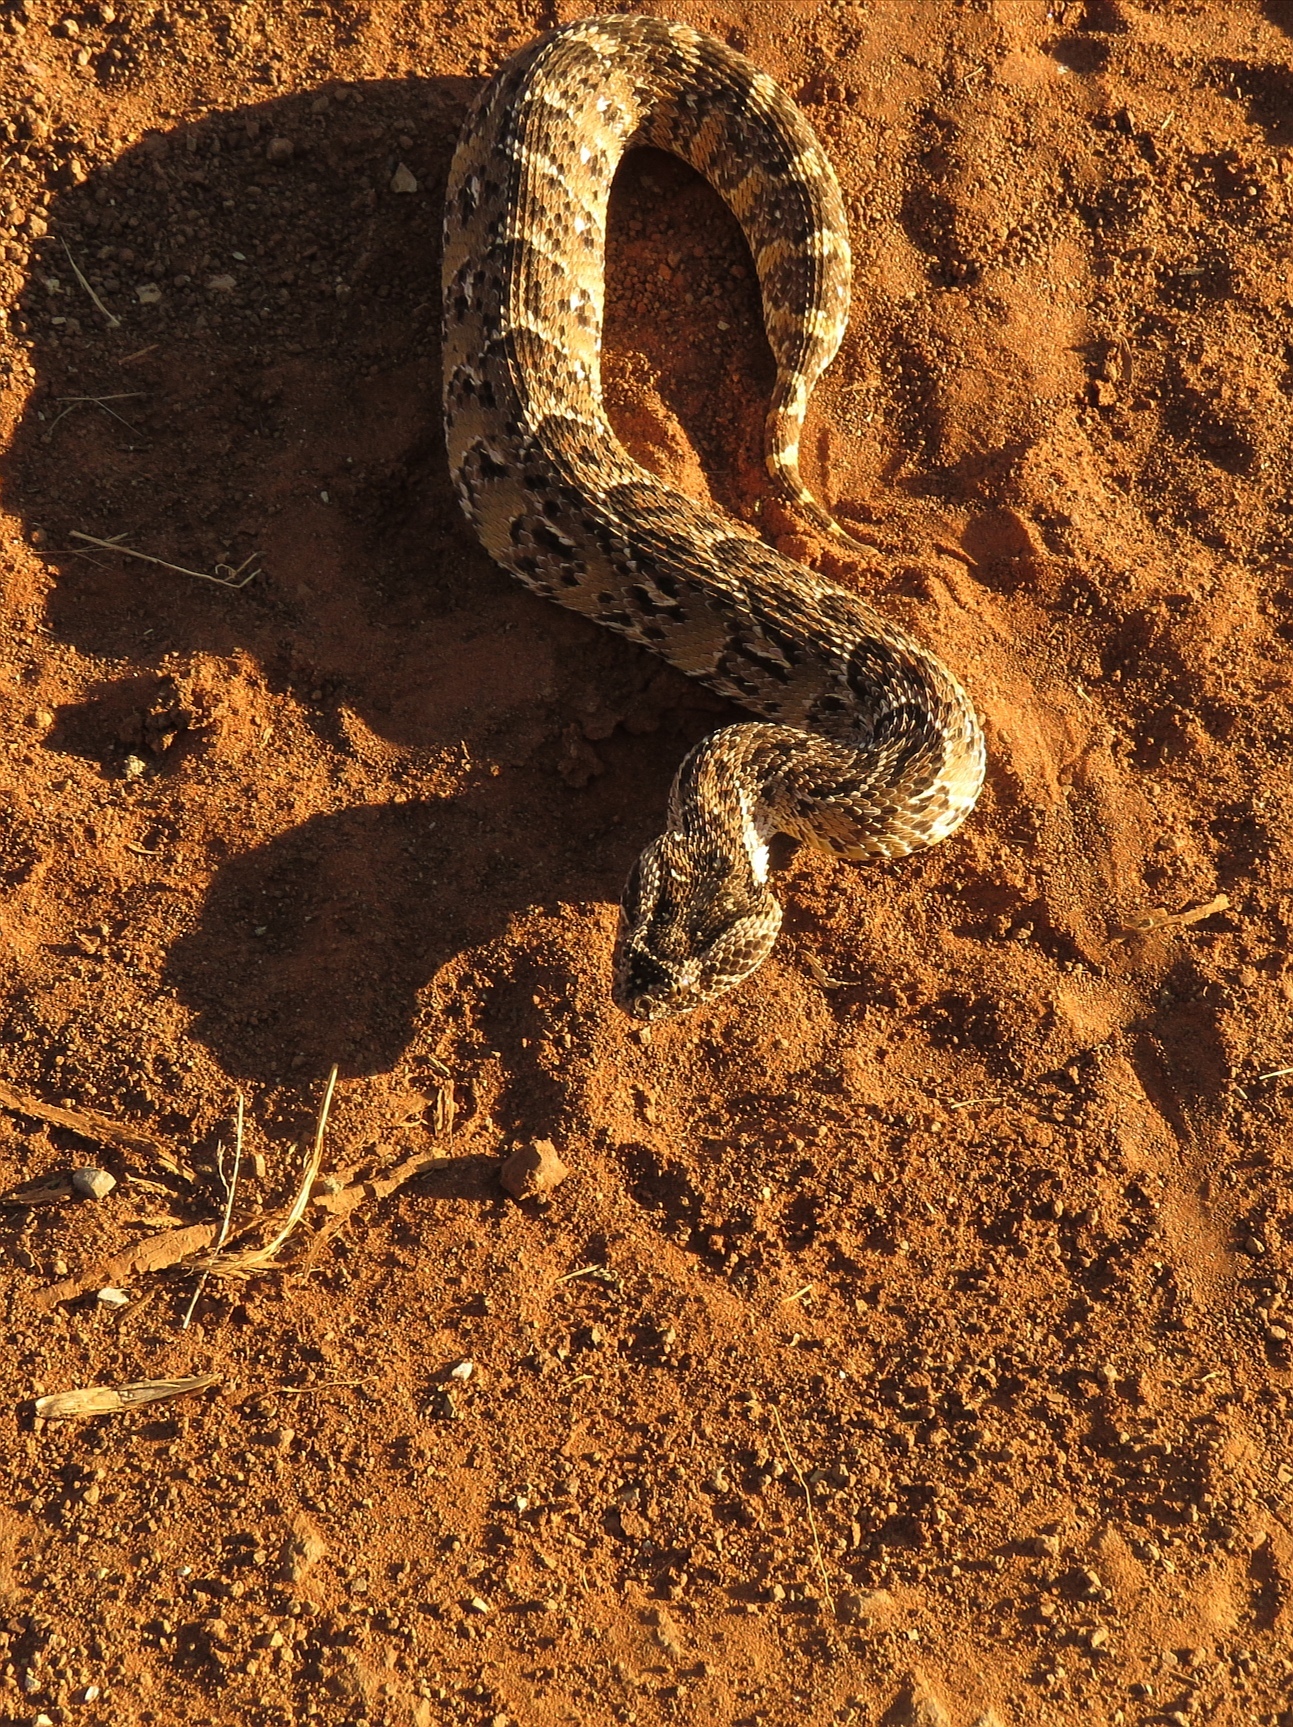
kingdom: Animalia
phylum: Chordata
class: Squamata
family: Viperidae
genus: Bitis
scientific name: Bitis arietans
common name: Puff adder
